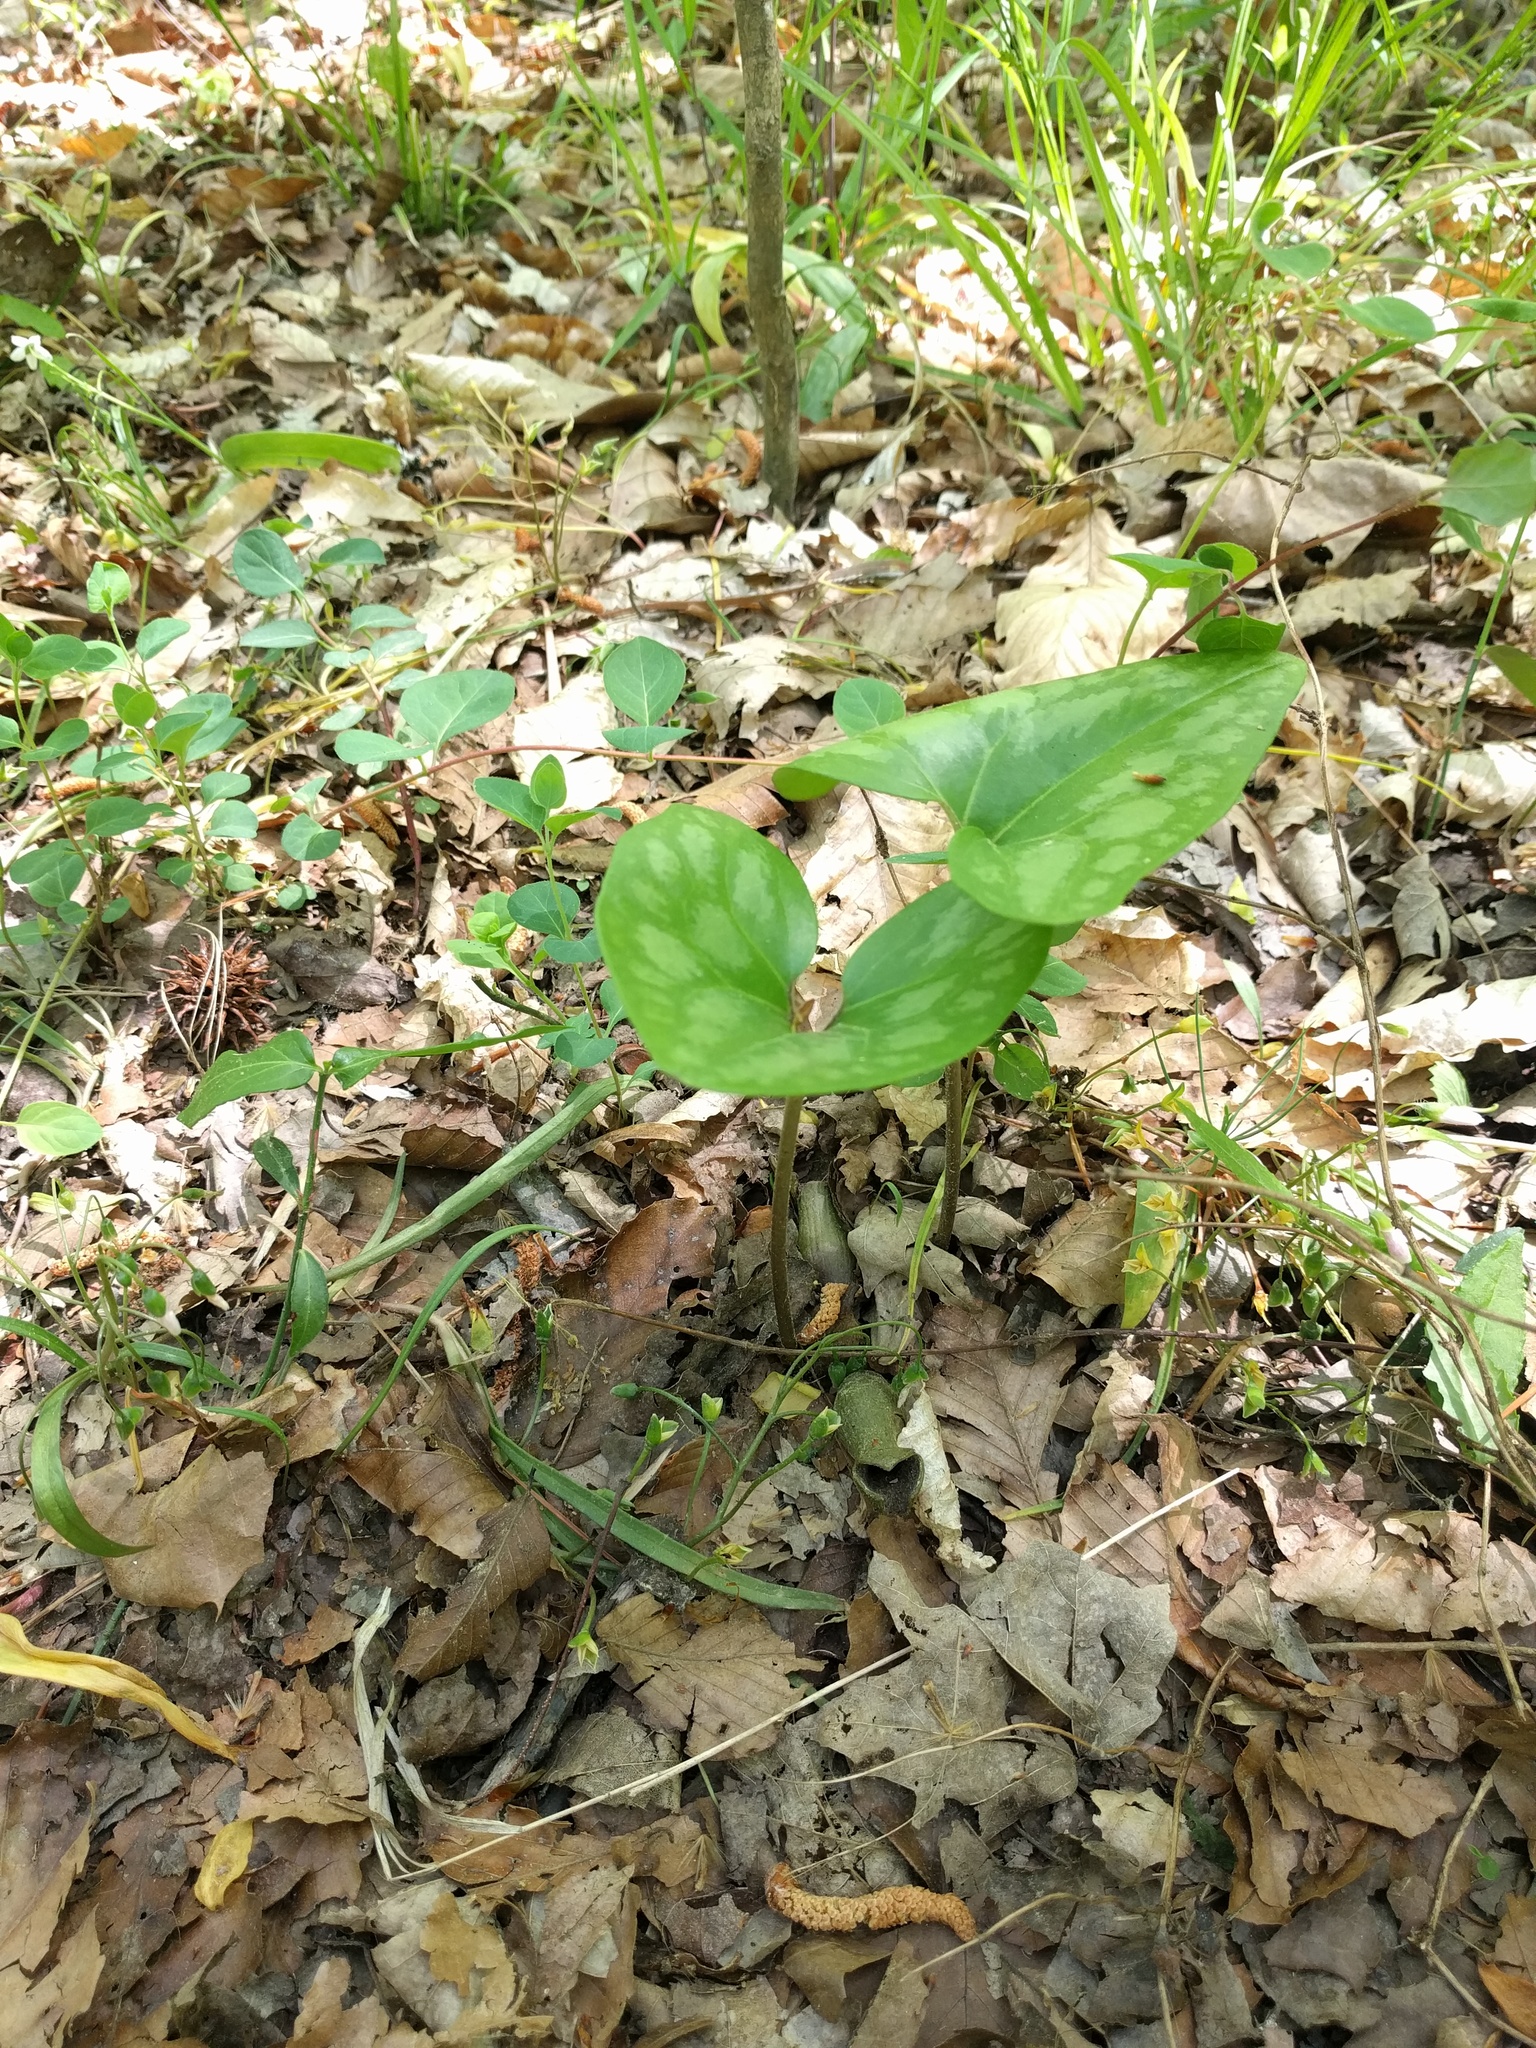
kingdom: Plantae
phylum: Tracheophyta
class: Magnoliopsida
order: Piperales
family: Aristolochiaceae
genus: Hexastylis
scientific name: Hexastylis arifolia
